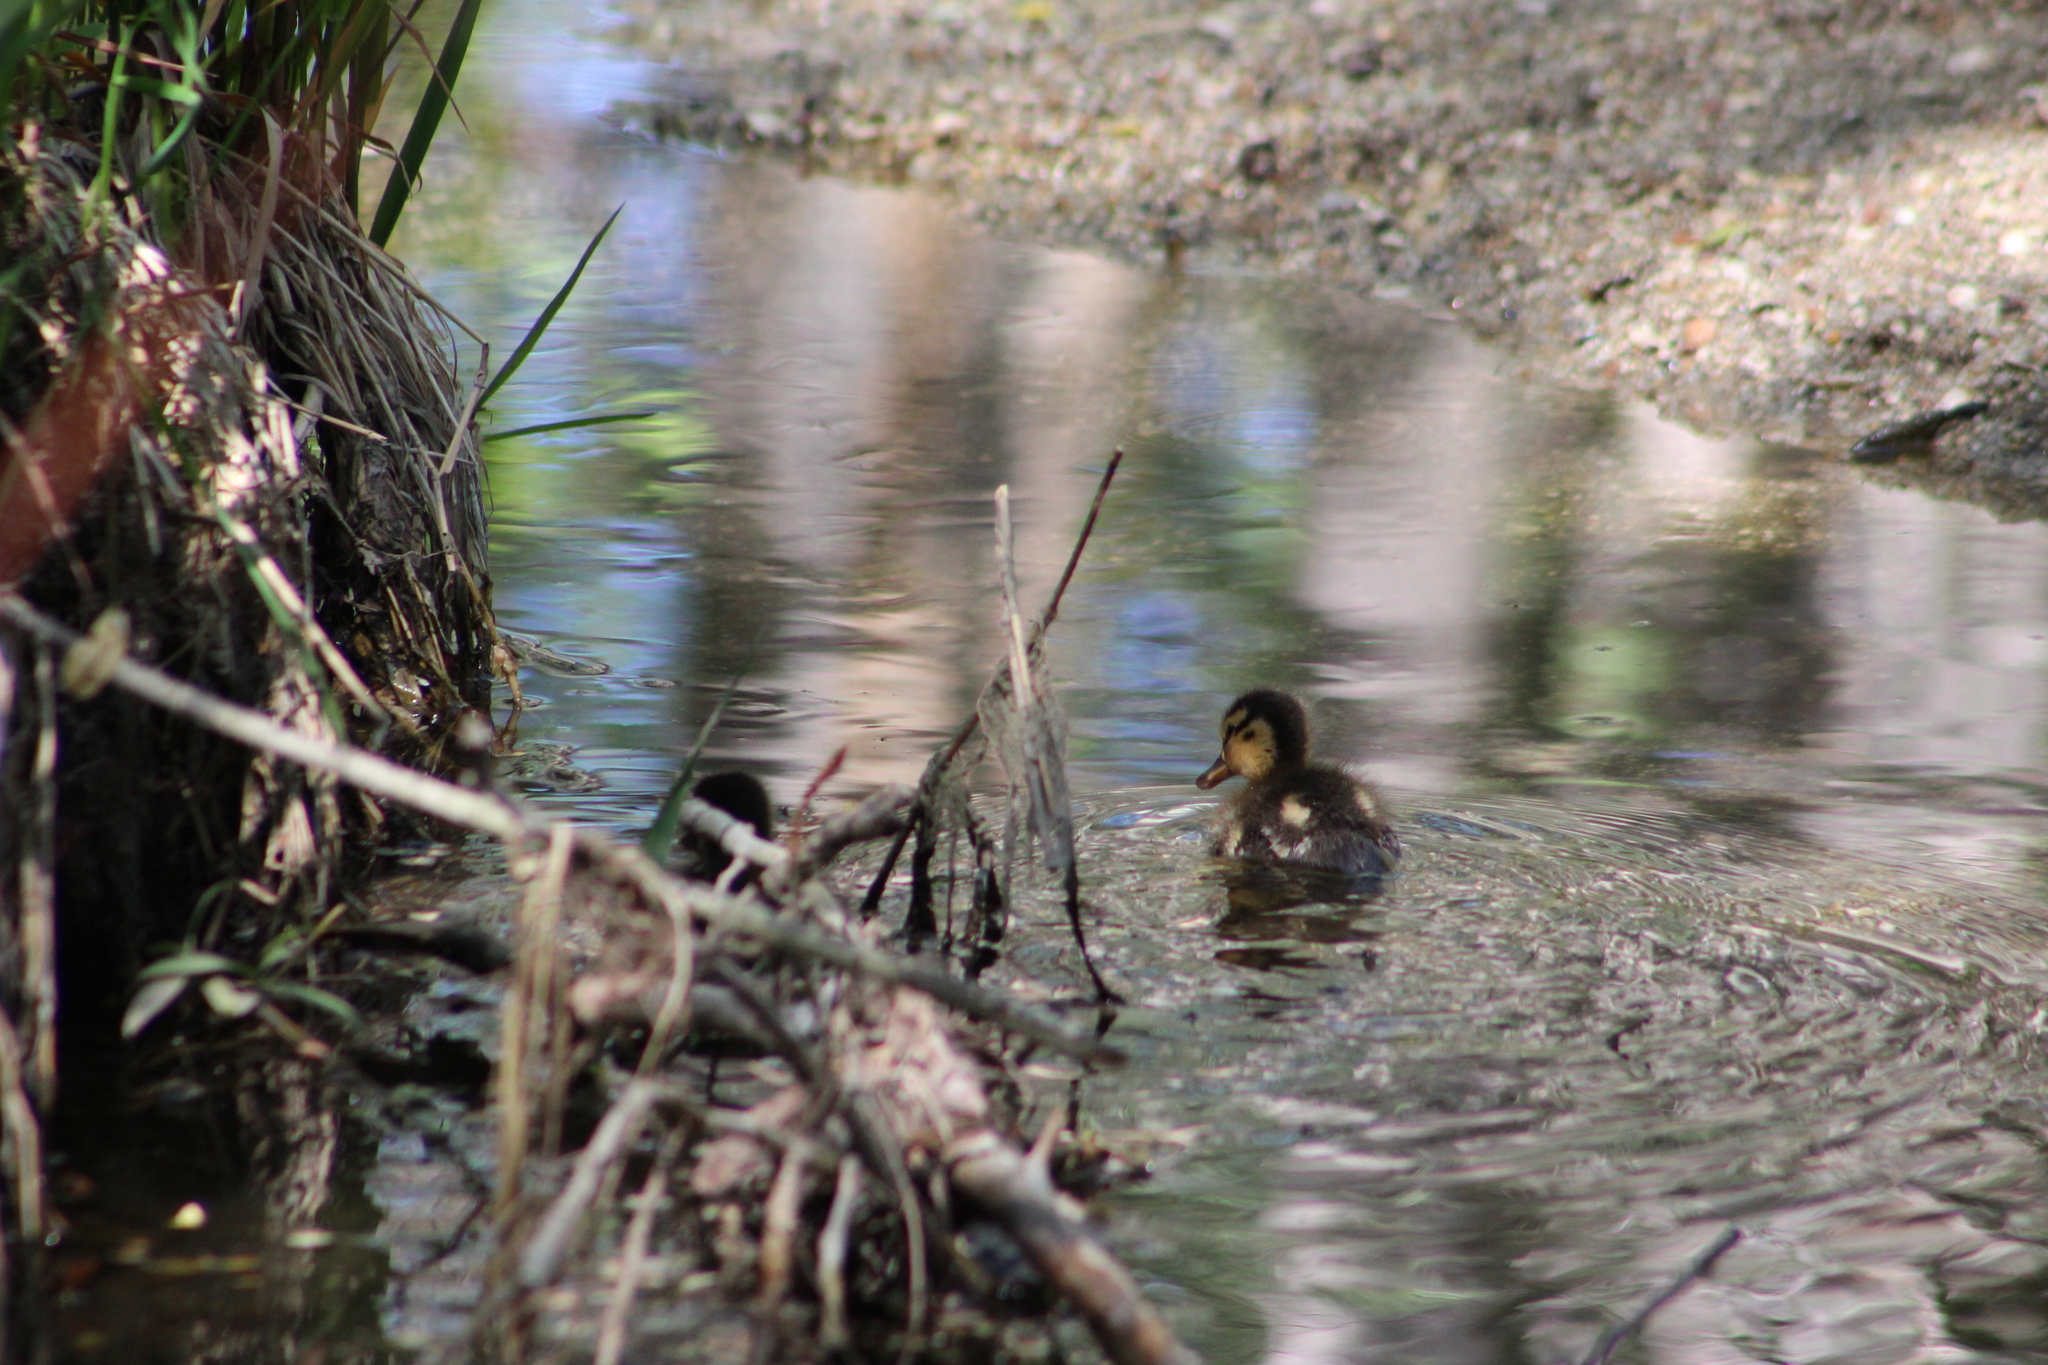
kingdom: Animalia
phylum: Chordata
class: Aves
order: Anseriformes
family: Anatidae
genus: Anas
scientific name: Anas platyrhynchos
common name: Mallard
